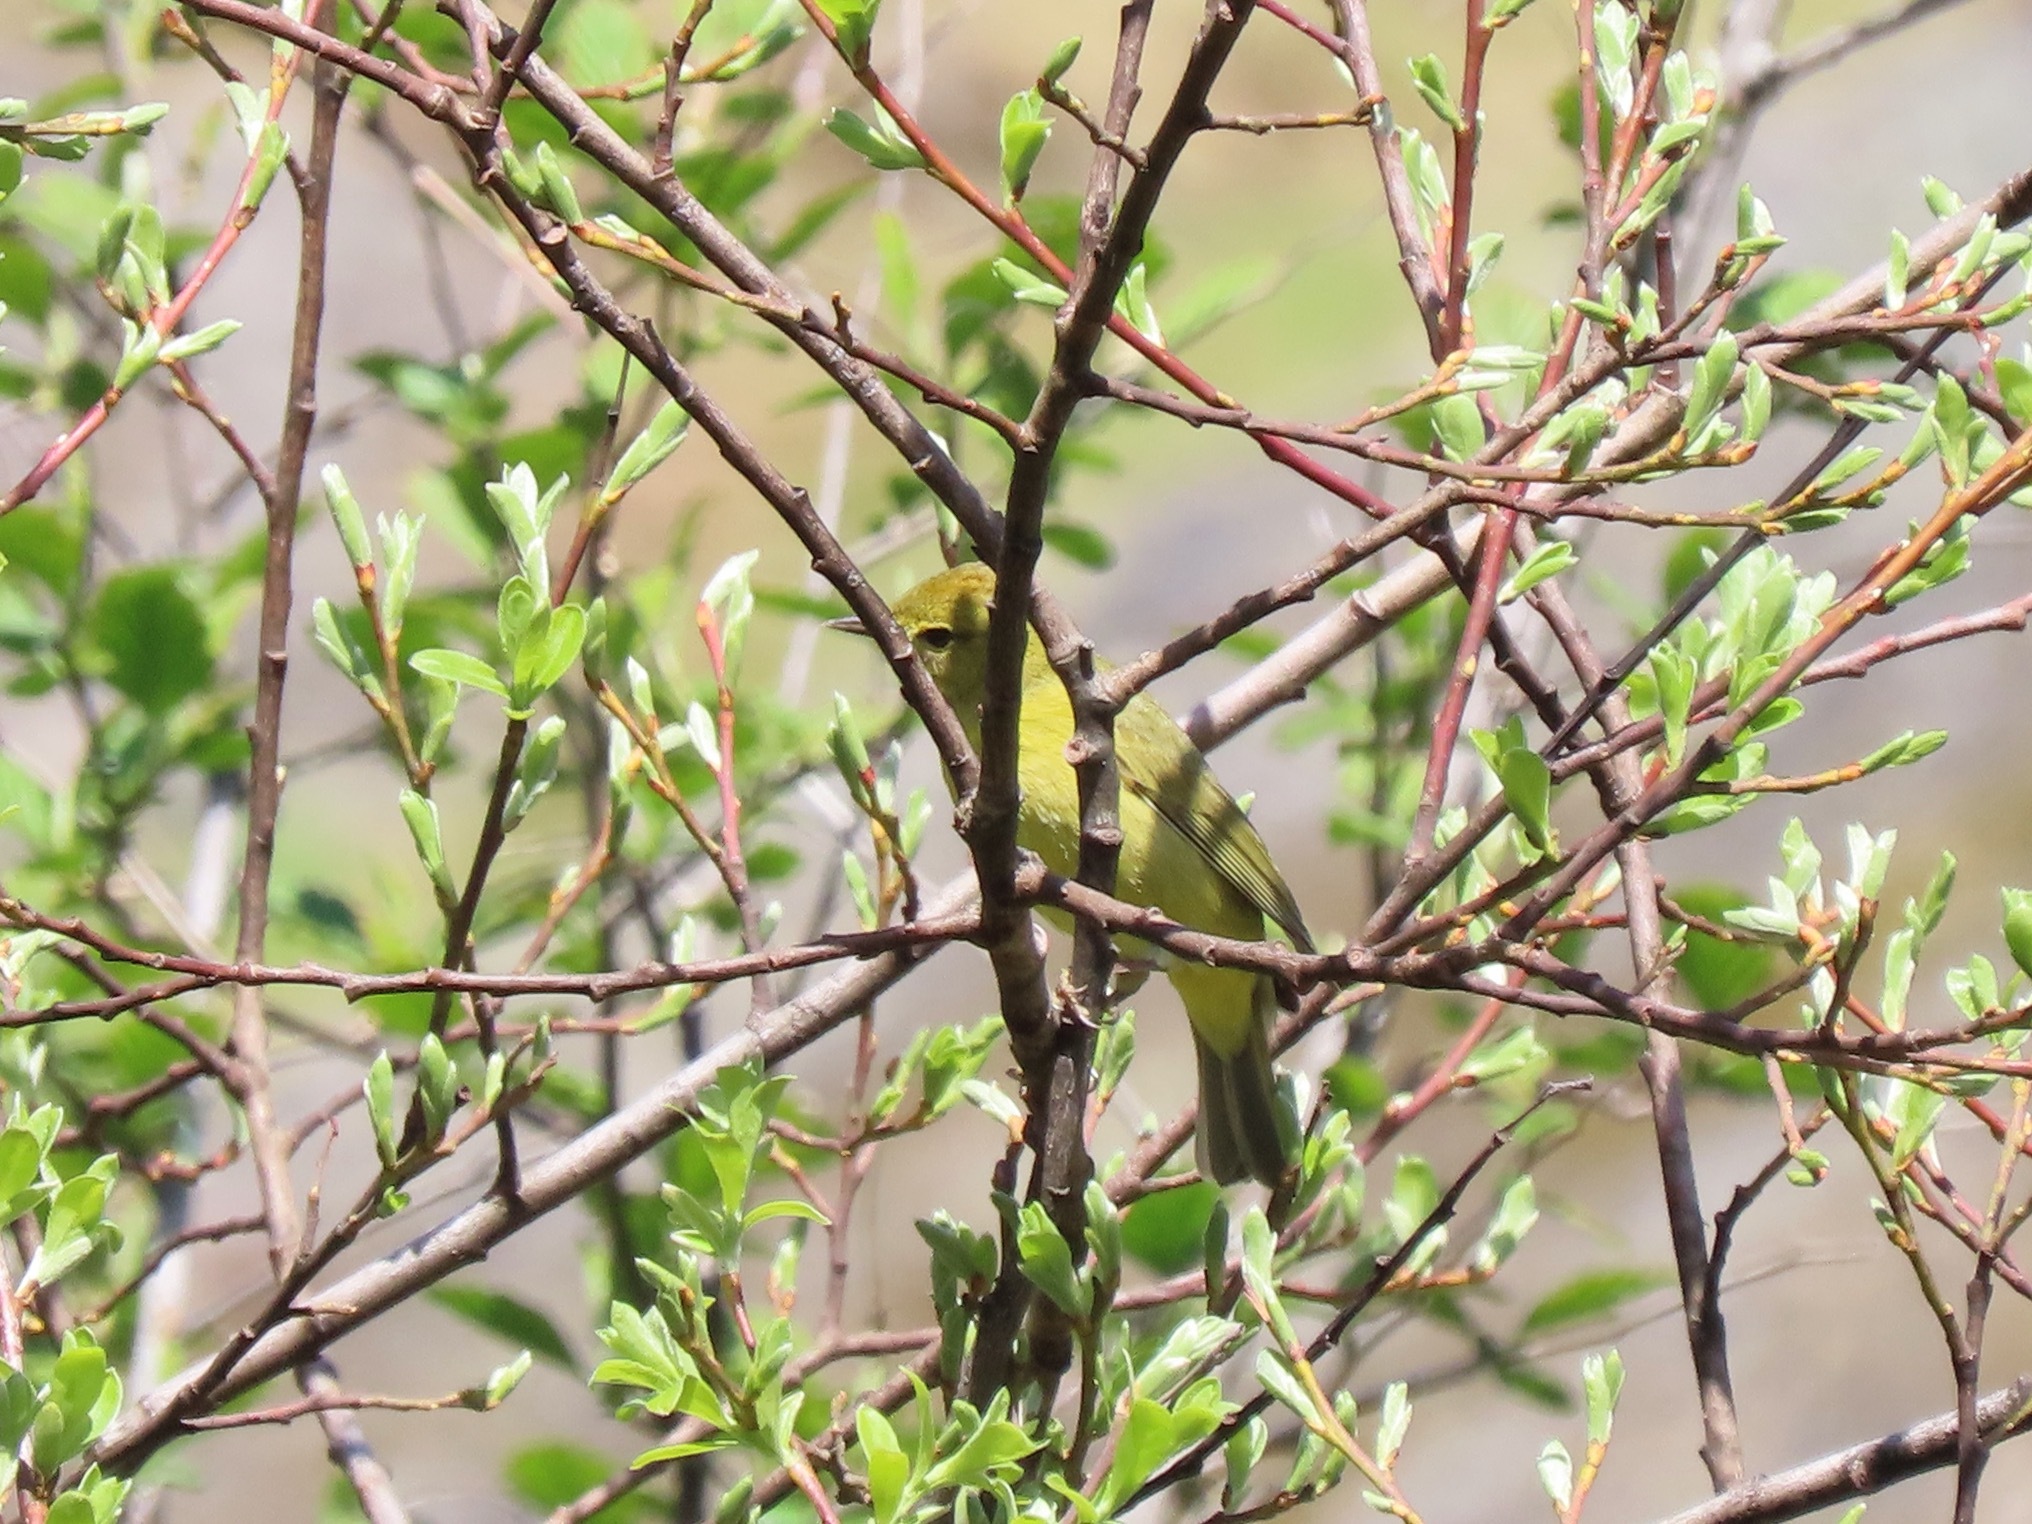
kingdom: Animalia
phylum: Chordata
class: Aves
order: Passeriformes
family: Parulidae
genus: Leiothlypis
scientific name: Leiothlypis celata
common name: Orange-crowned warbler
